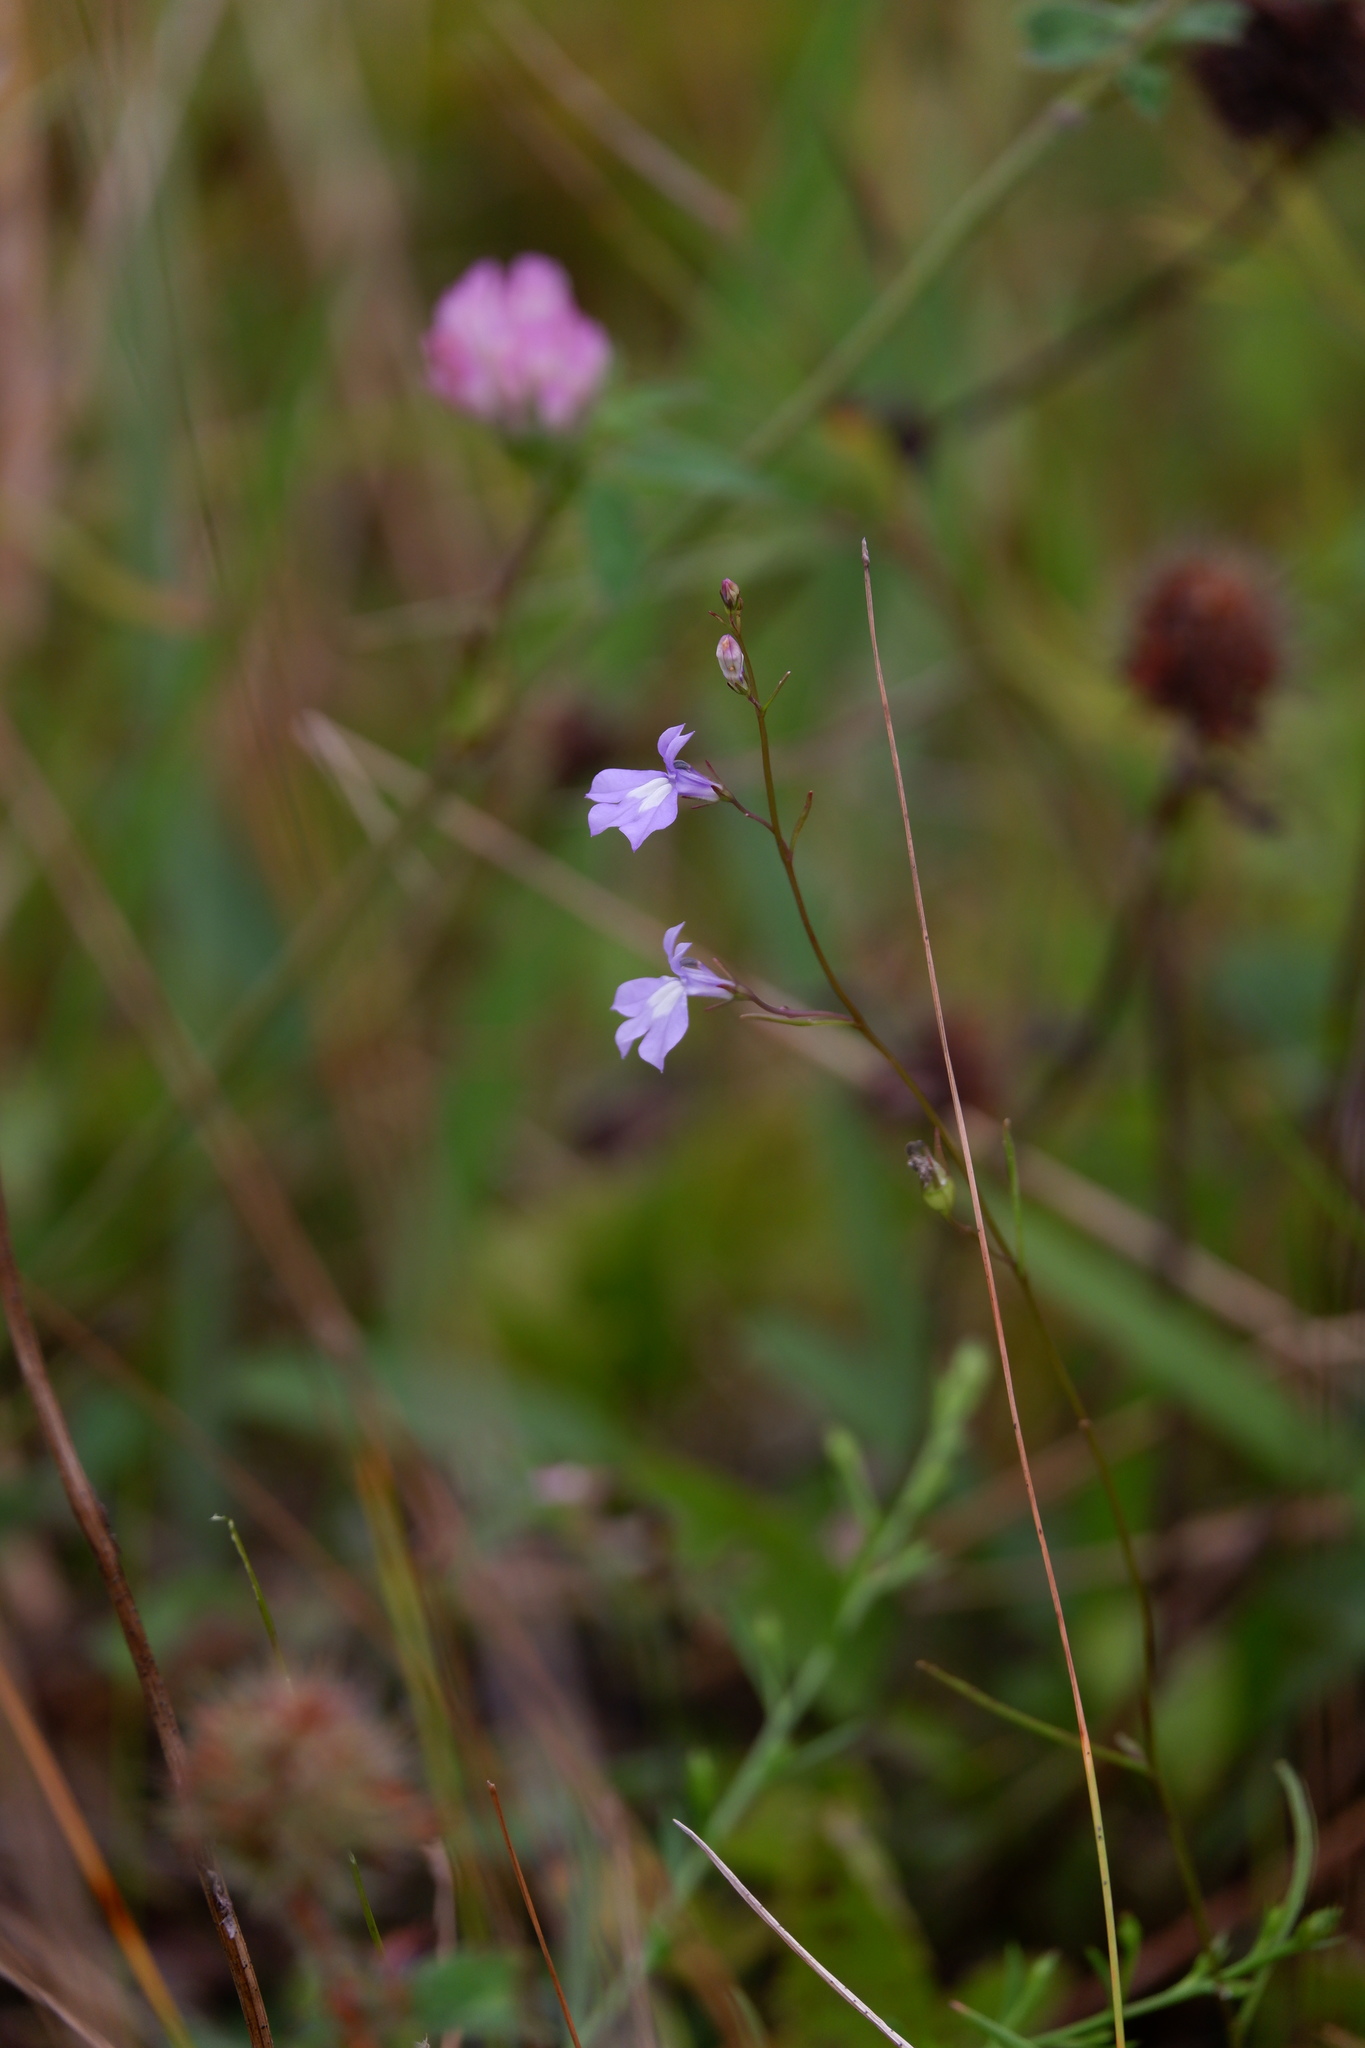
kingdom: Plantae
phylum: Tracheophyta
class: Magnoliopsida
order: Asterales
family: Campanulaceae
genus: Lobelia
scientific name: Lobelia kalmii
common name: Kalm's lobelia
